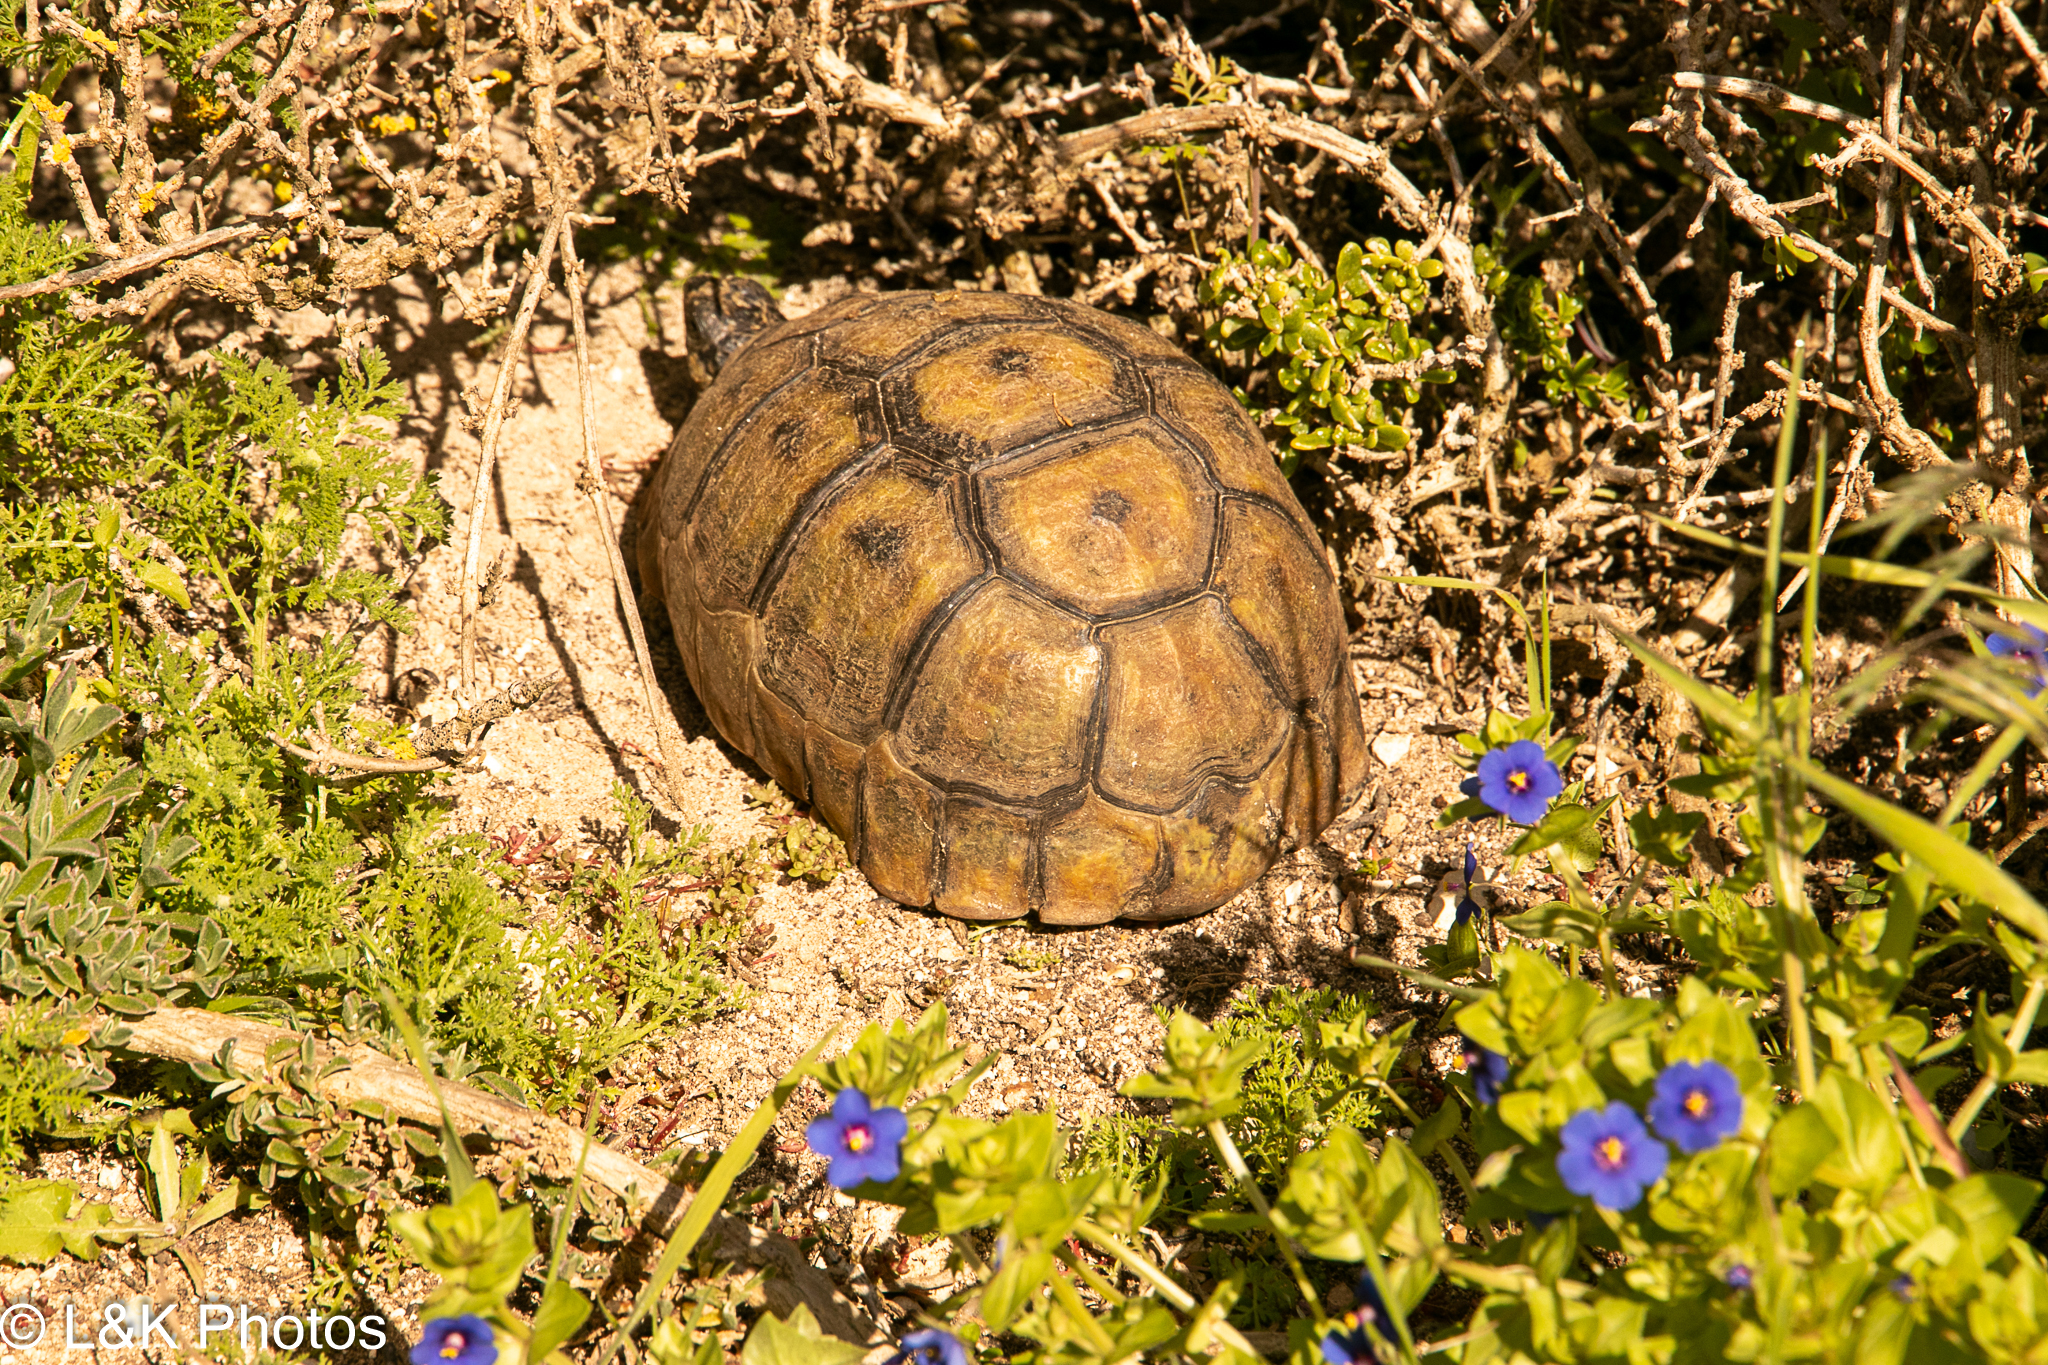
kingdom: Animalia
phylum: Chordata
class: Testudines
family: Testudinidae
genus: Chersina
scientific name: Chersina angulata
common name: South african bowsprit tortoise
